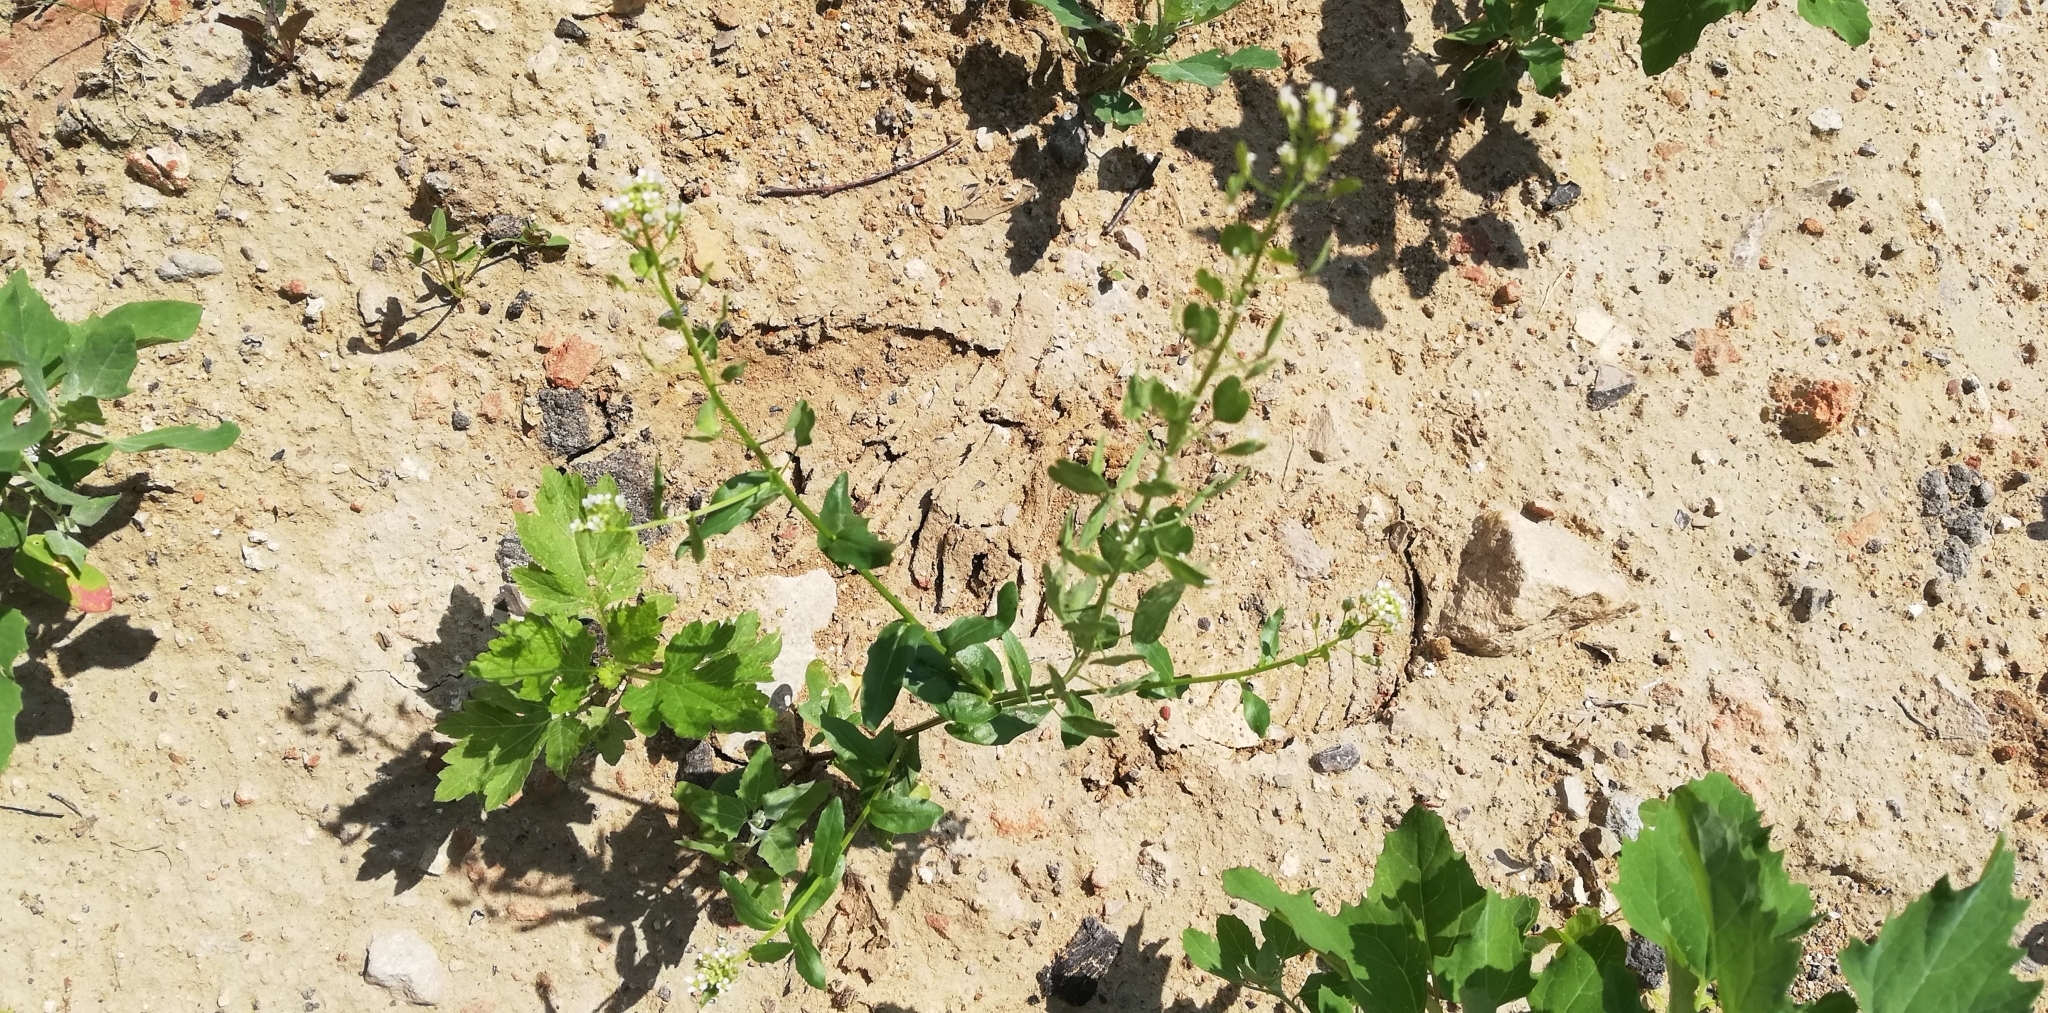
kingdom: Plantae
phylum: Tracheophyta
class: Magnoliopsida
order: Brassicales
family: Brassicaceae
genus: Thlaspi
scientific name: Thlaspi arvense
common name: Field pennycress
